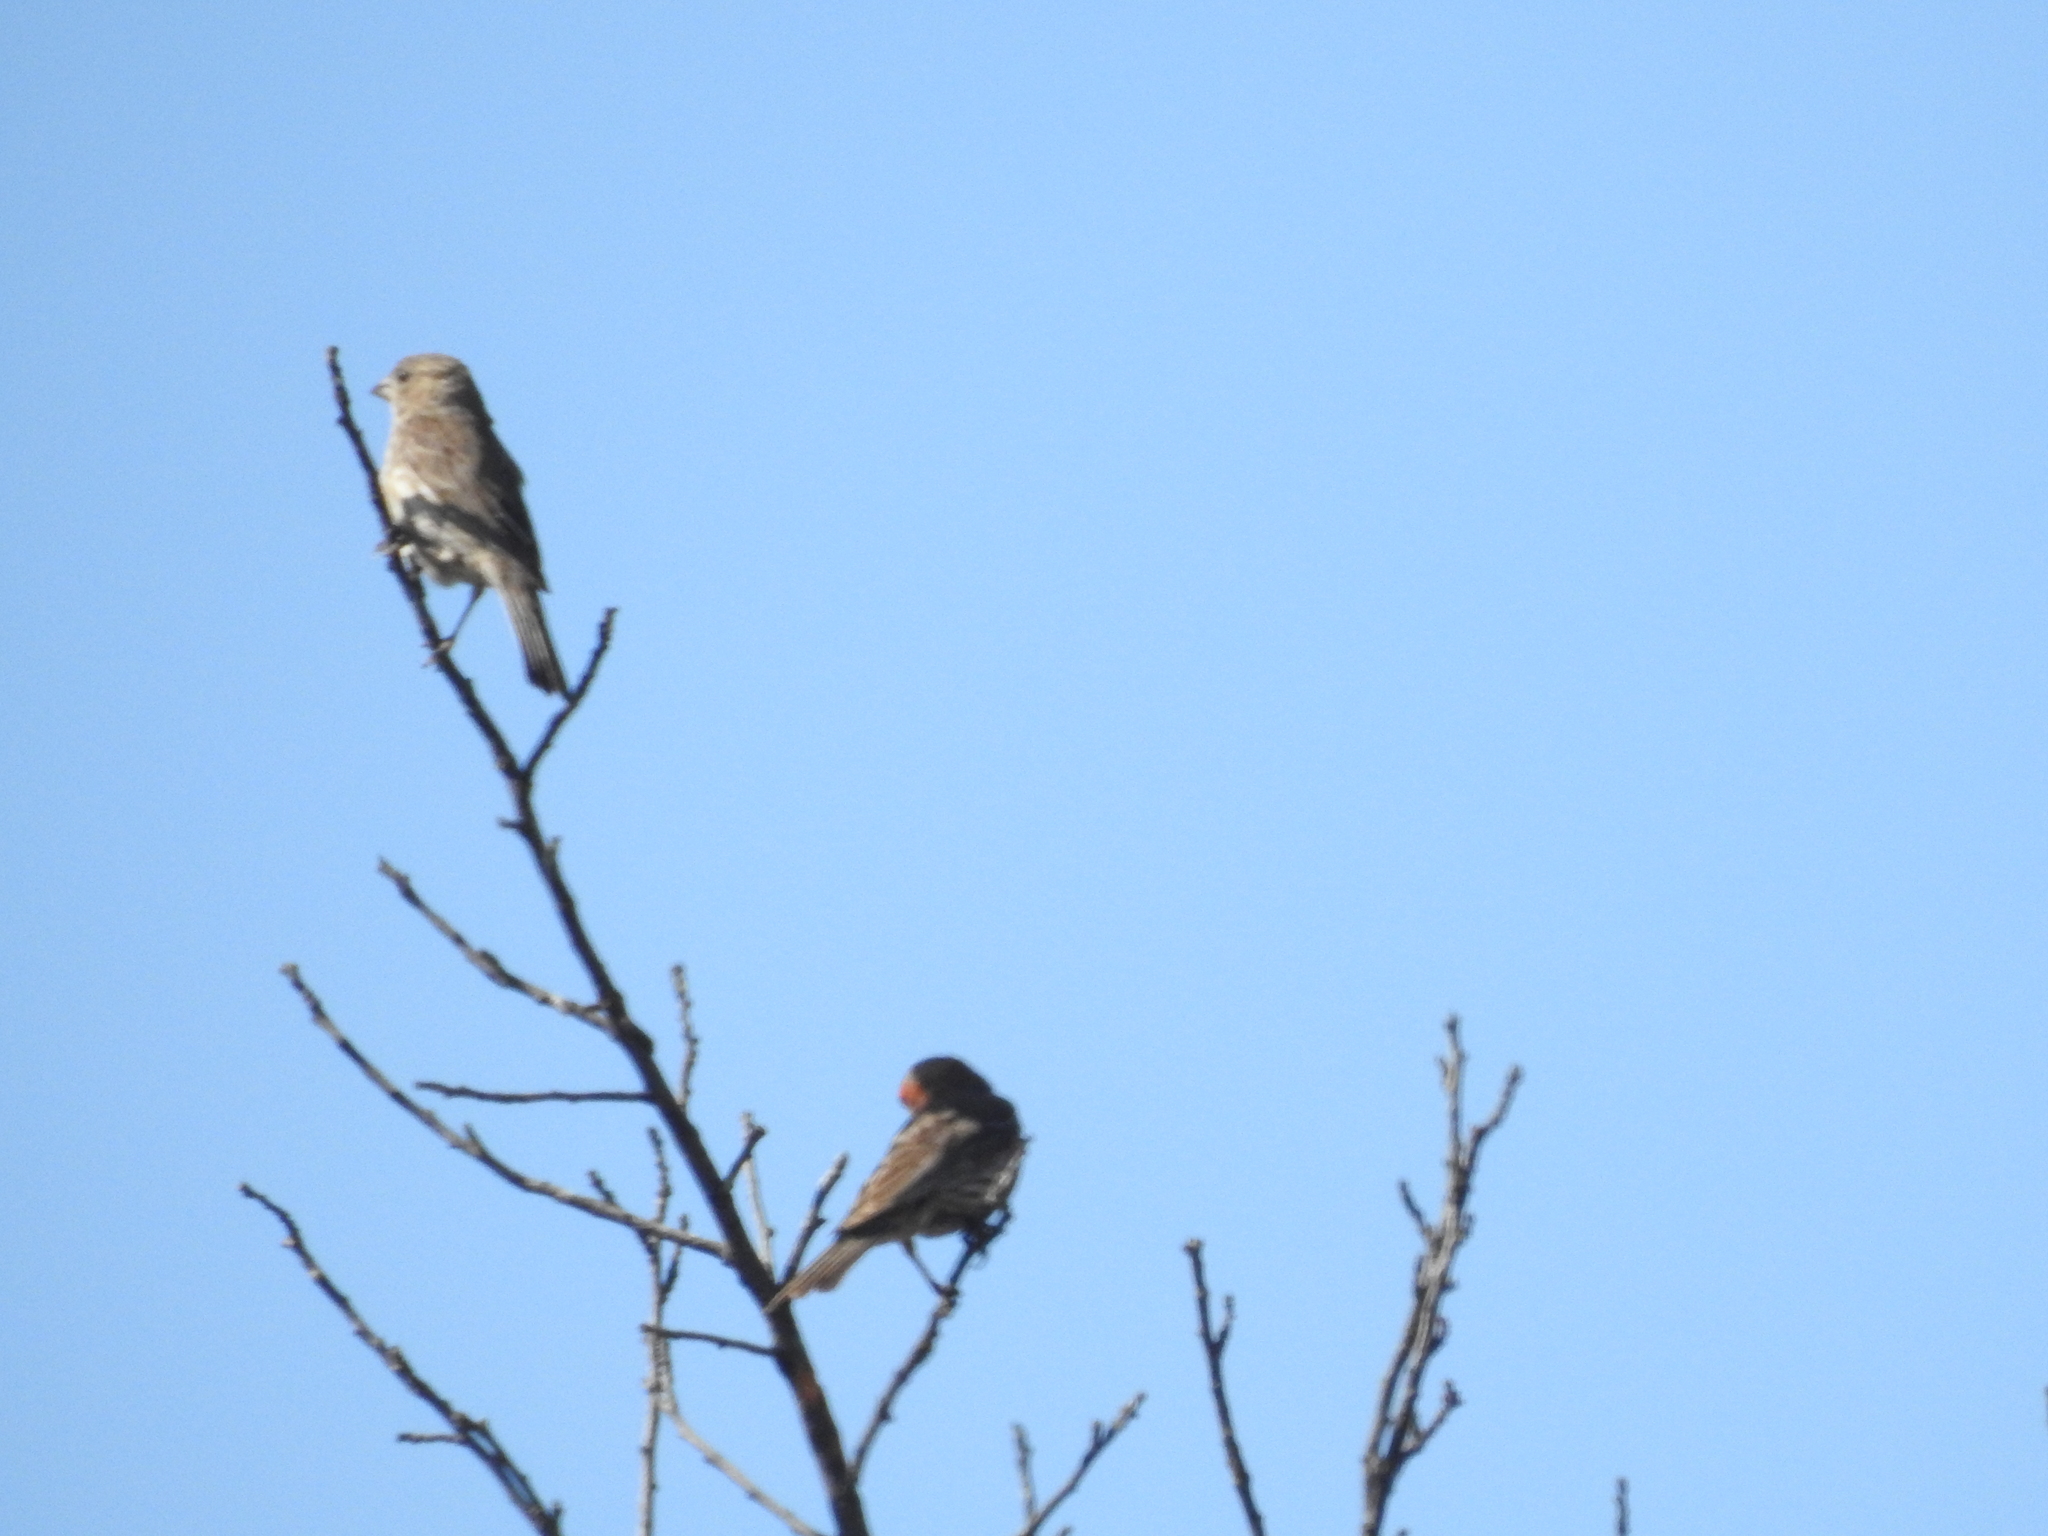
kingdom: Animalia
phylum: Chordata
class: Aves
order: Passeriformes
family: Fringillidae
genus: Haemorhous
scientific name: Haemorhous mexicanus
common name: House finch
